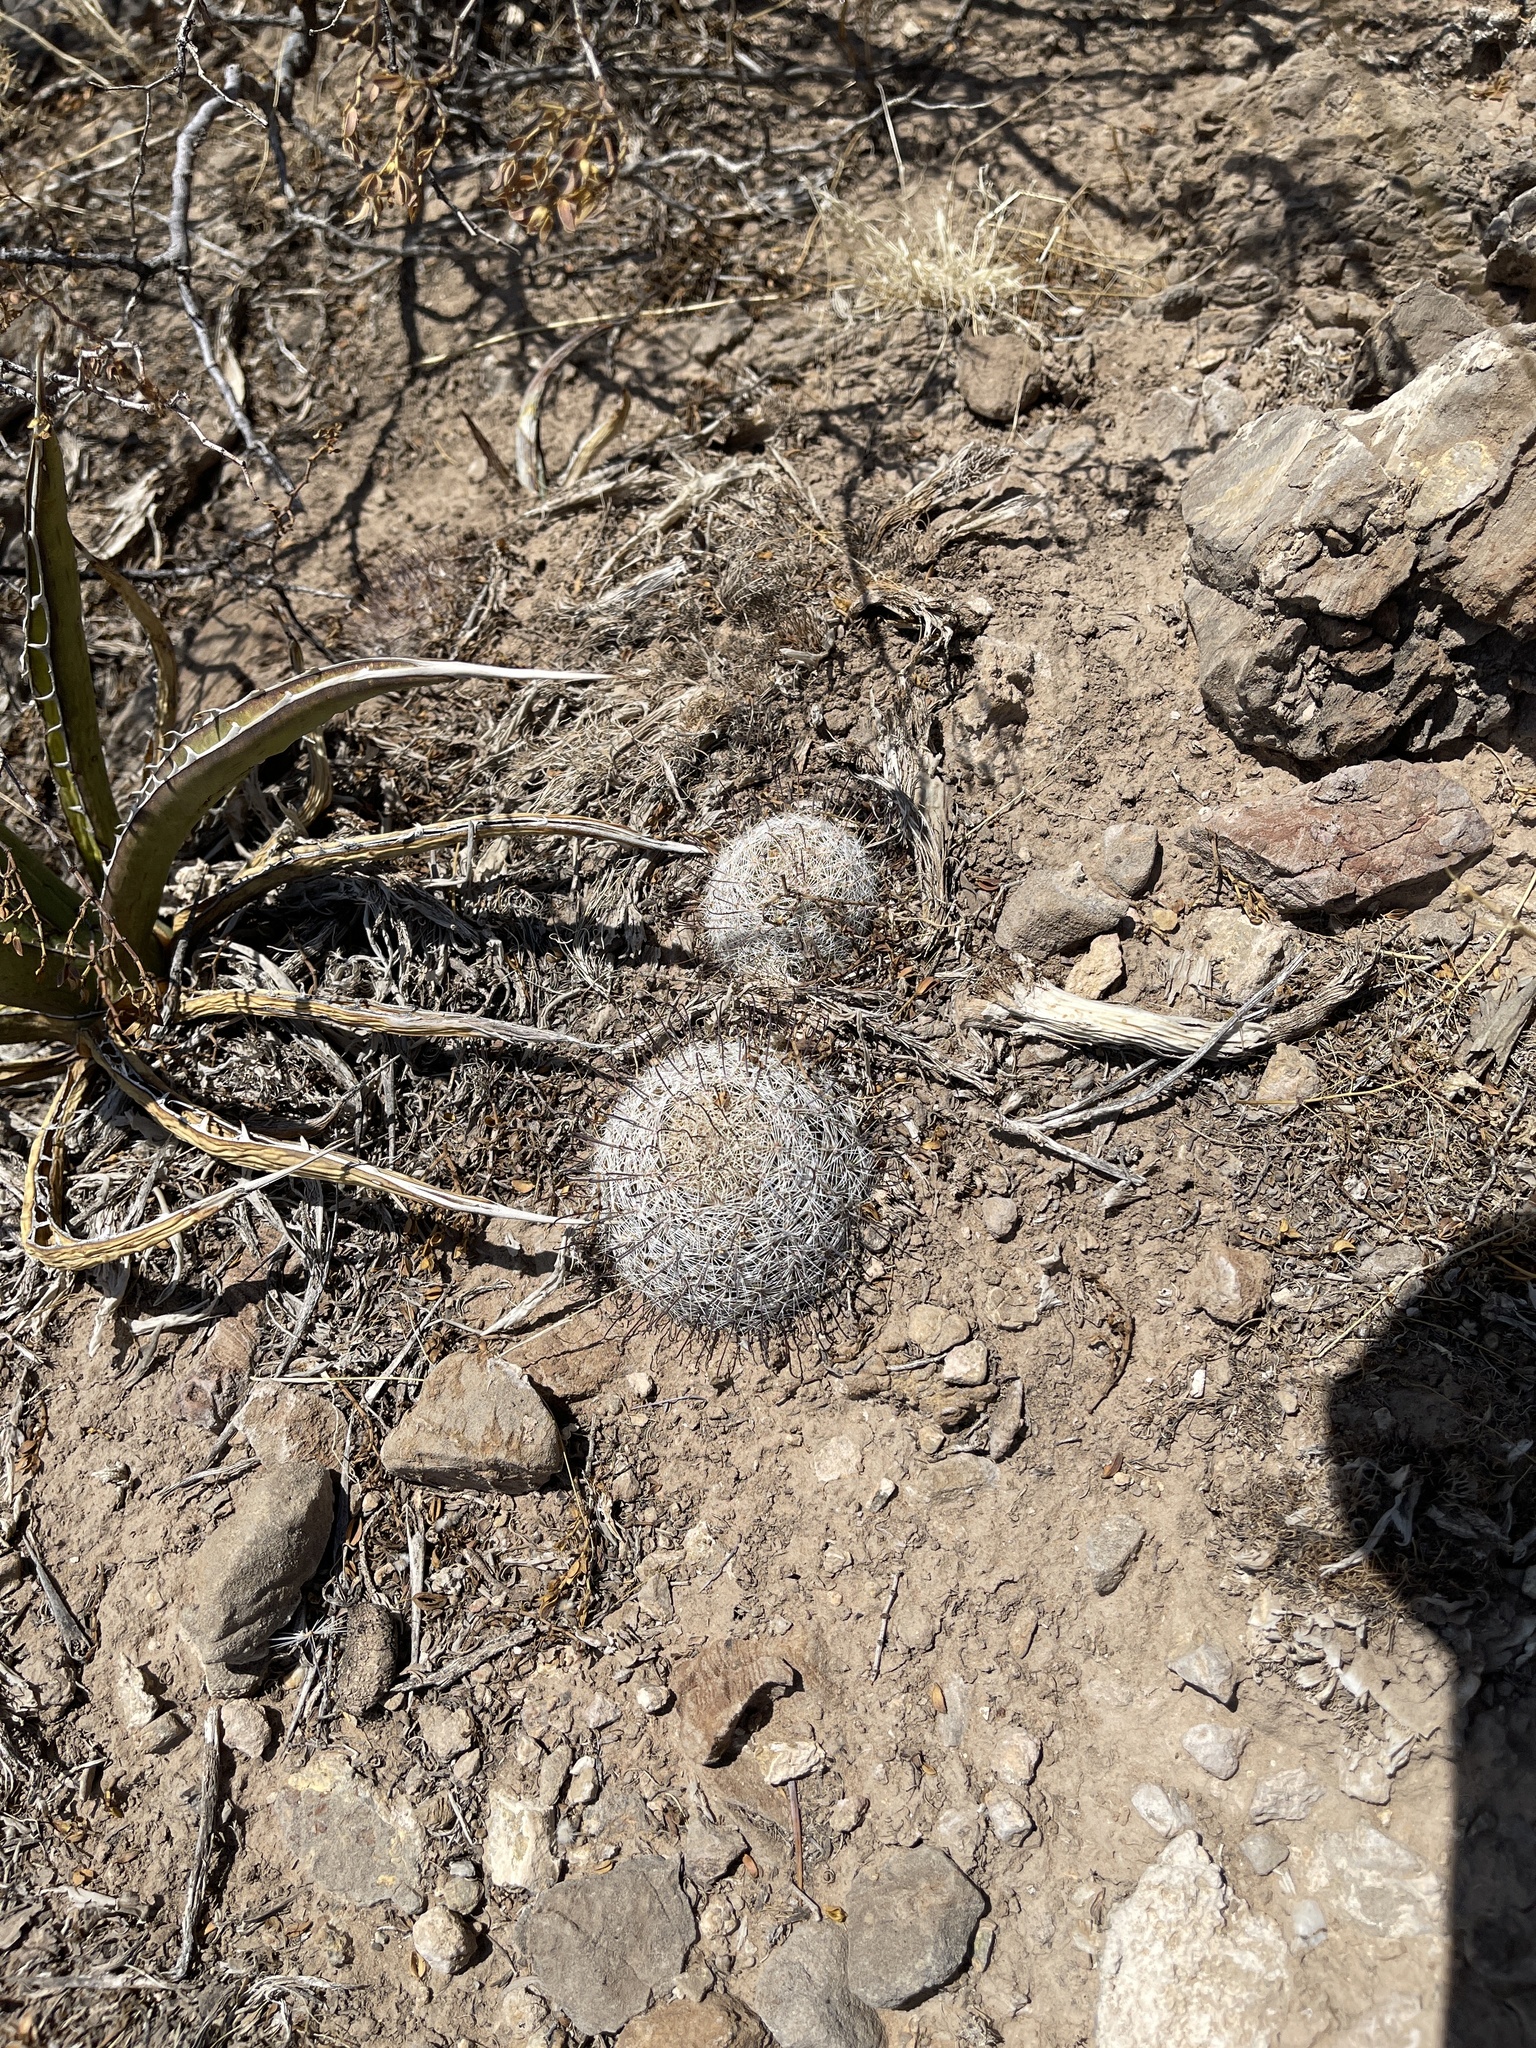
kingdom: Plantae
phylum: Tracheophyta
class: Magnoliopsida
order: Caryophyllales
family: Cactaceae
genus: Cochemiea
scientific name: Cochemiea grahamii
